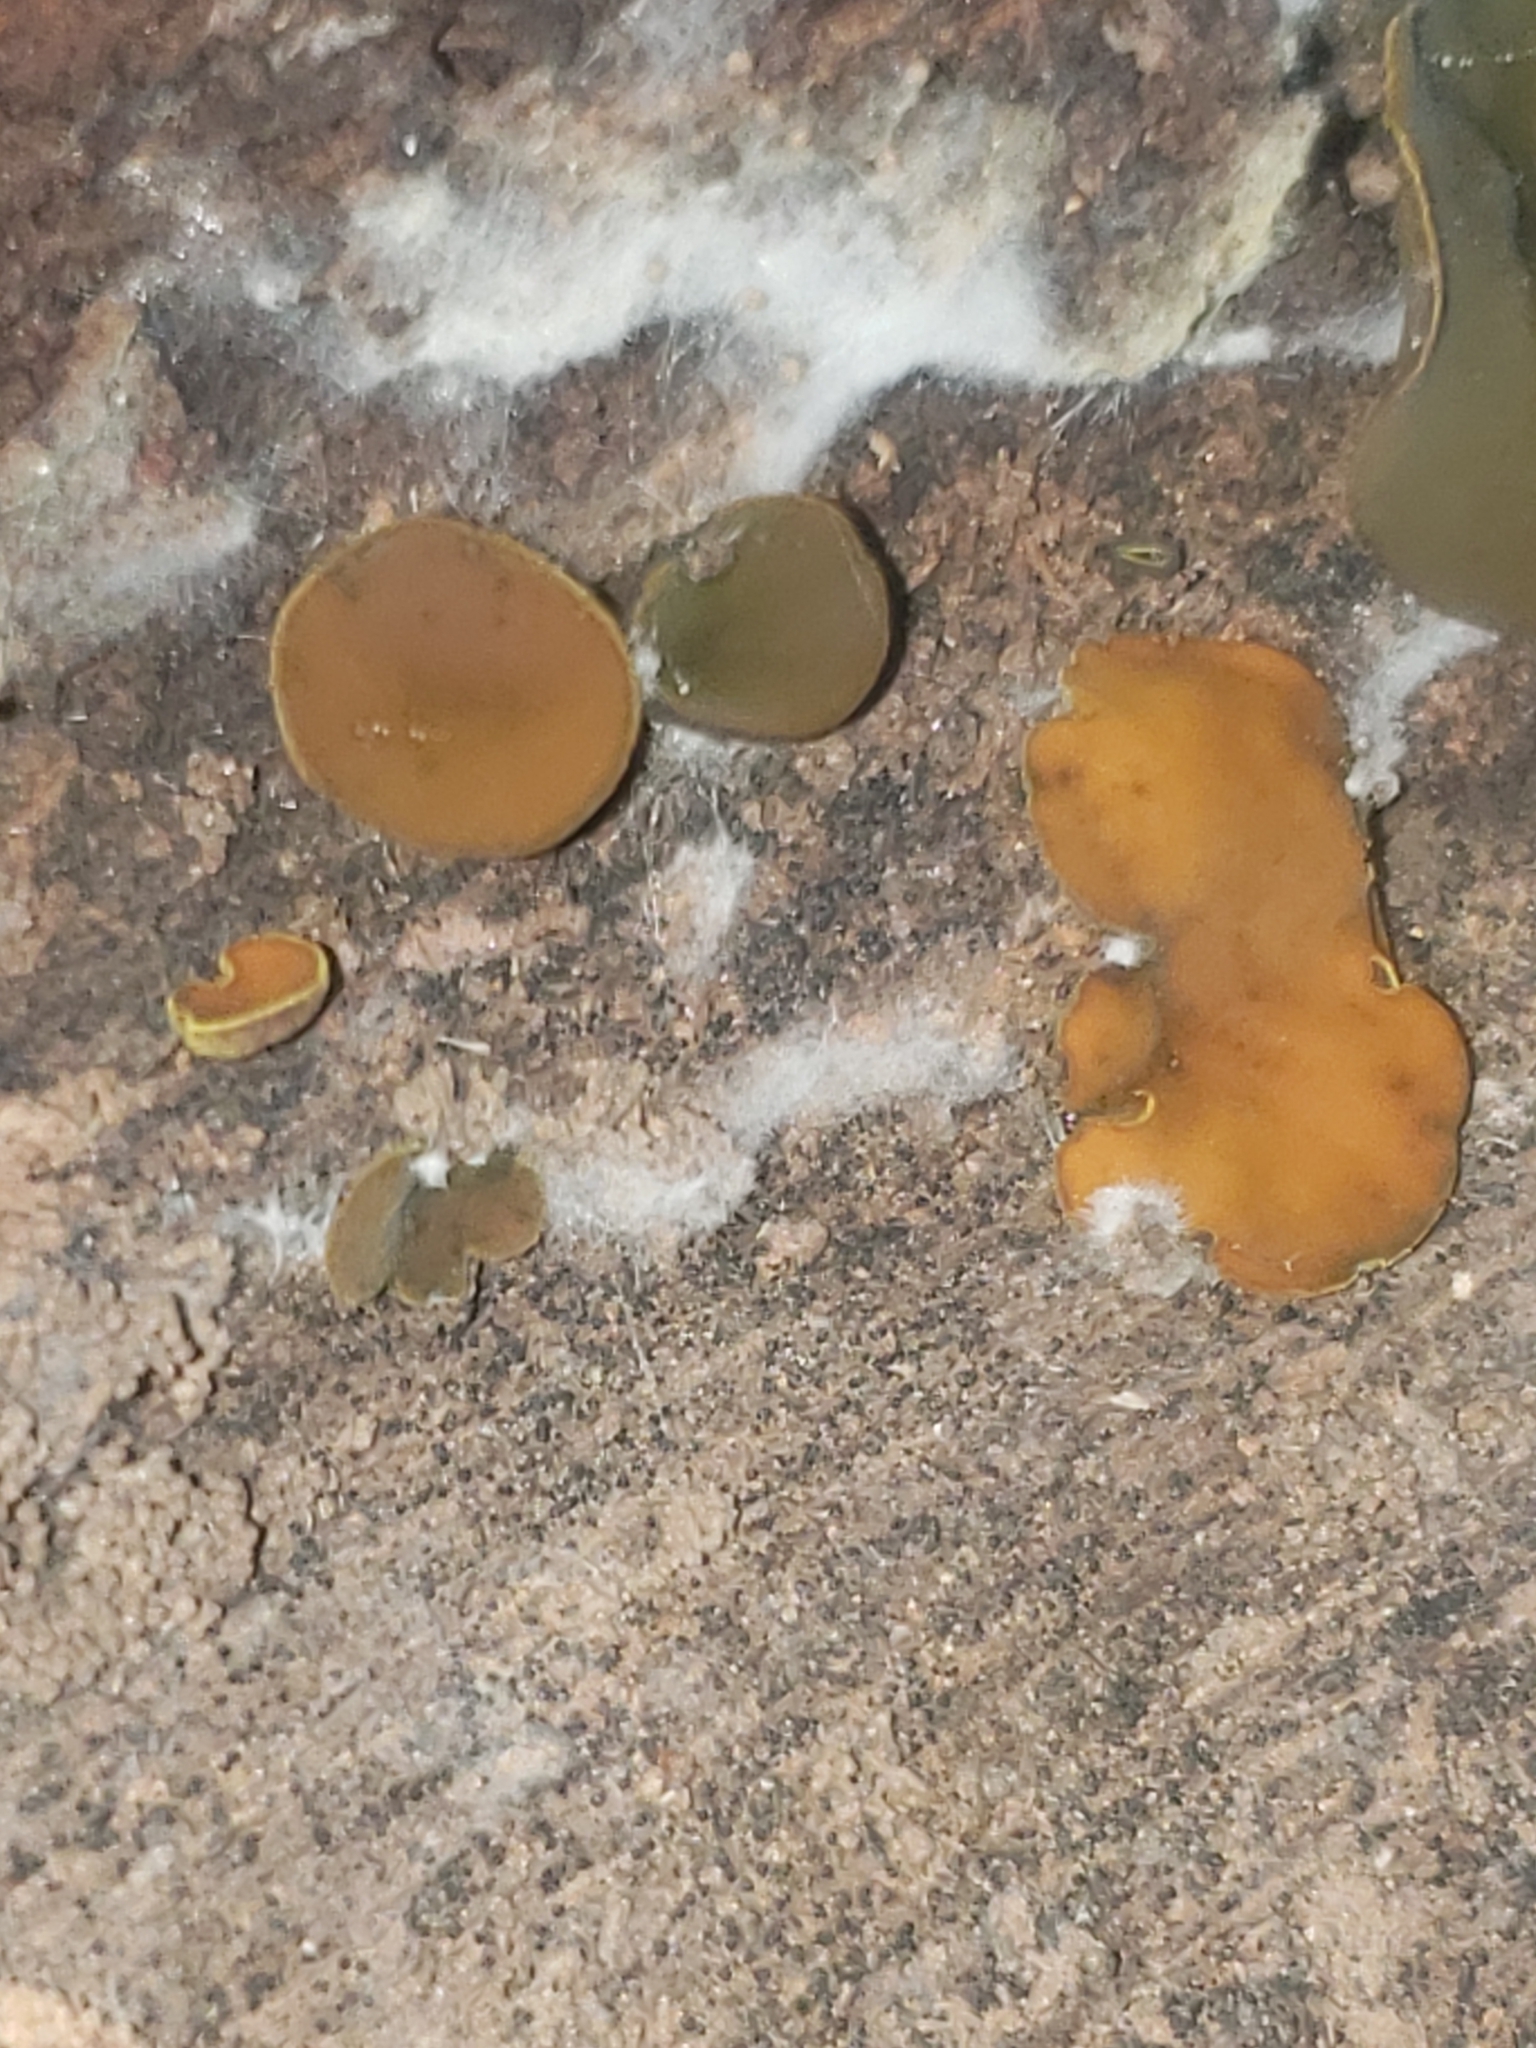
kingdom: Fungi
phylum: Ascomycota
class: Leotiomycetes
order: Helotiales
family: Cenangiaceae
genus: Chlorencoelia
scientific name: Chlorencoelia
